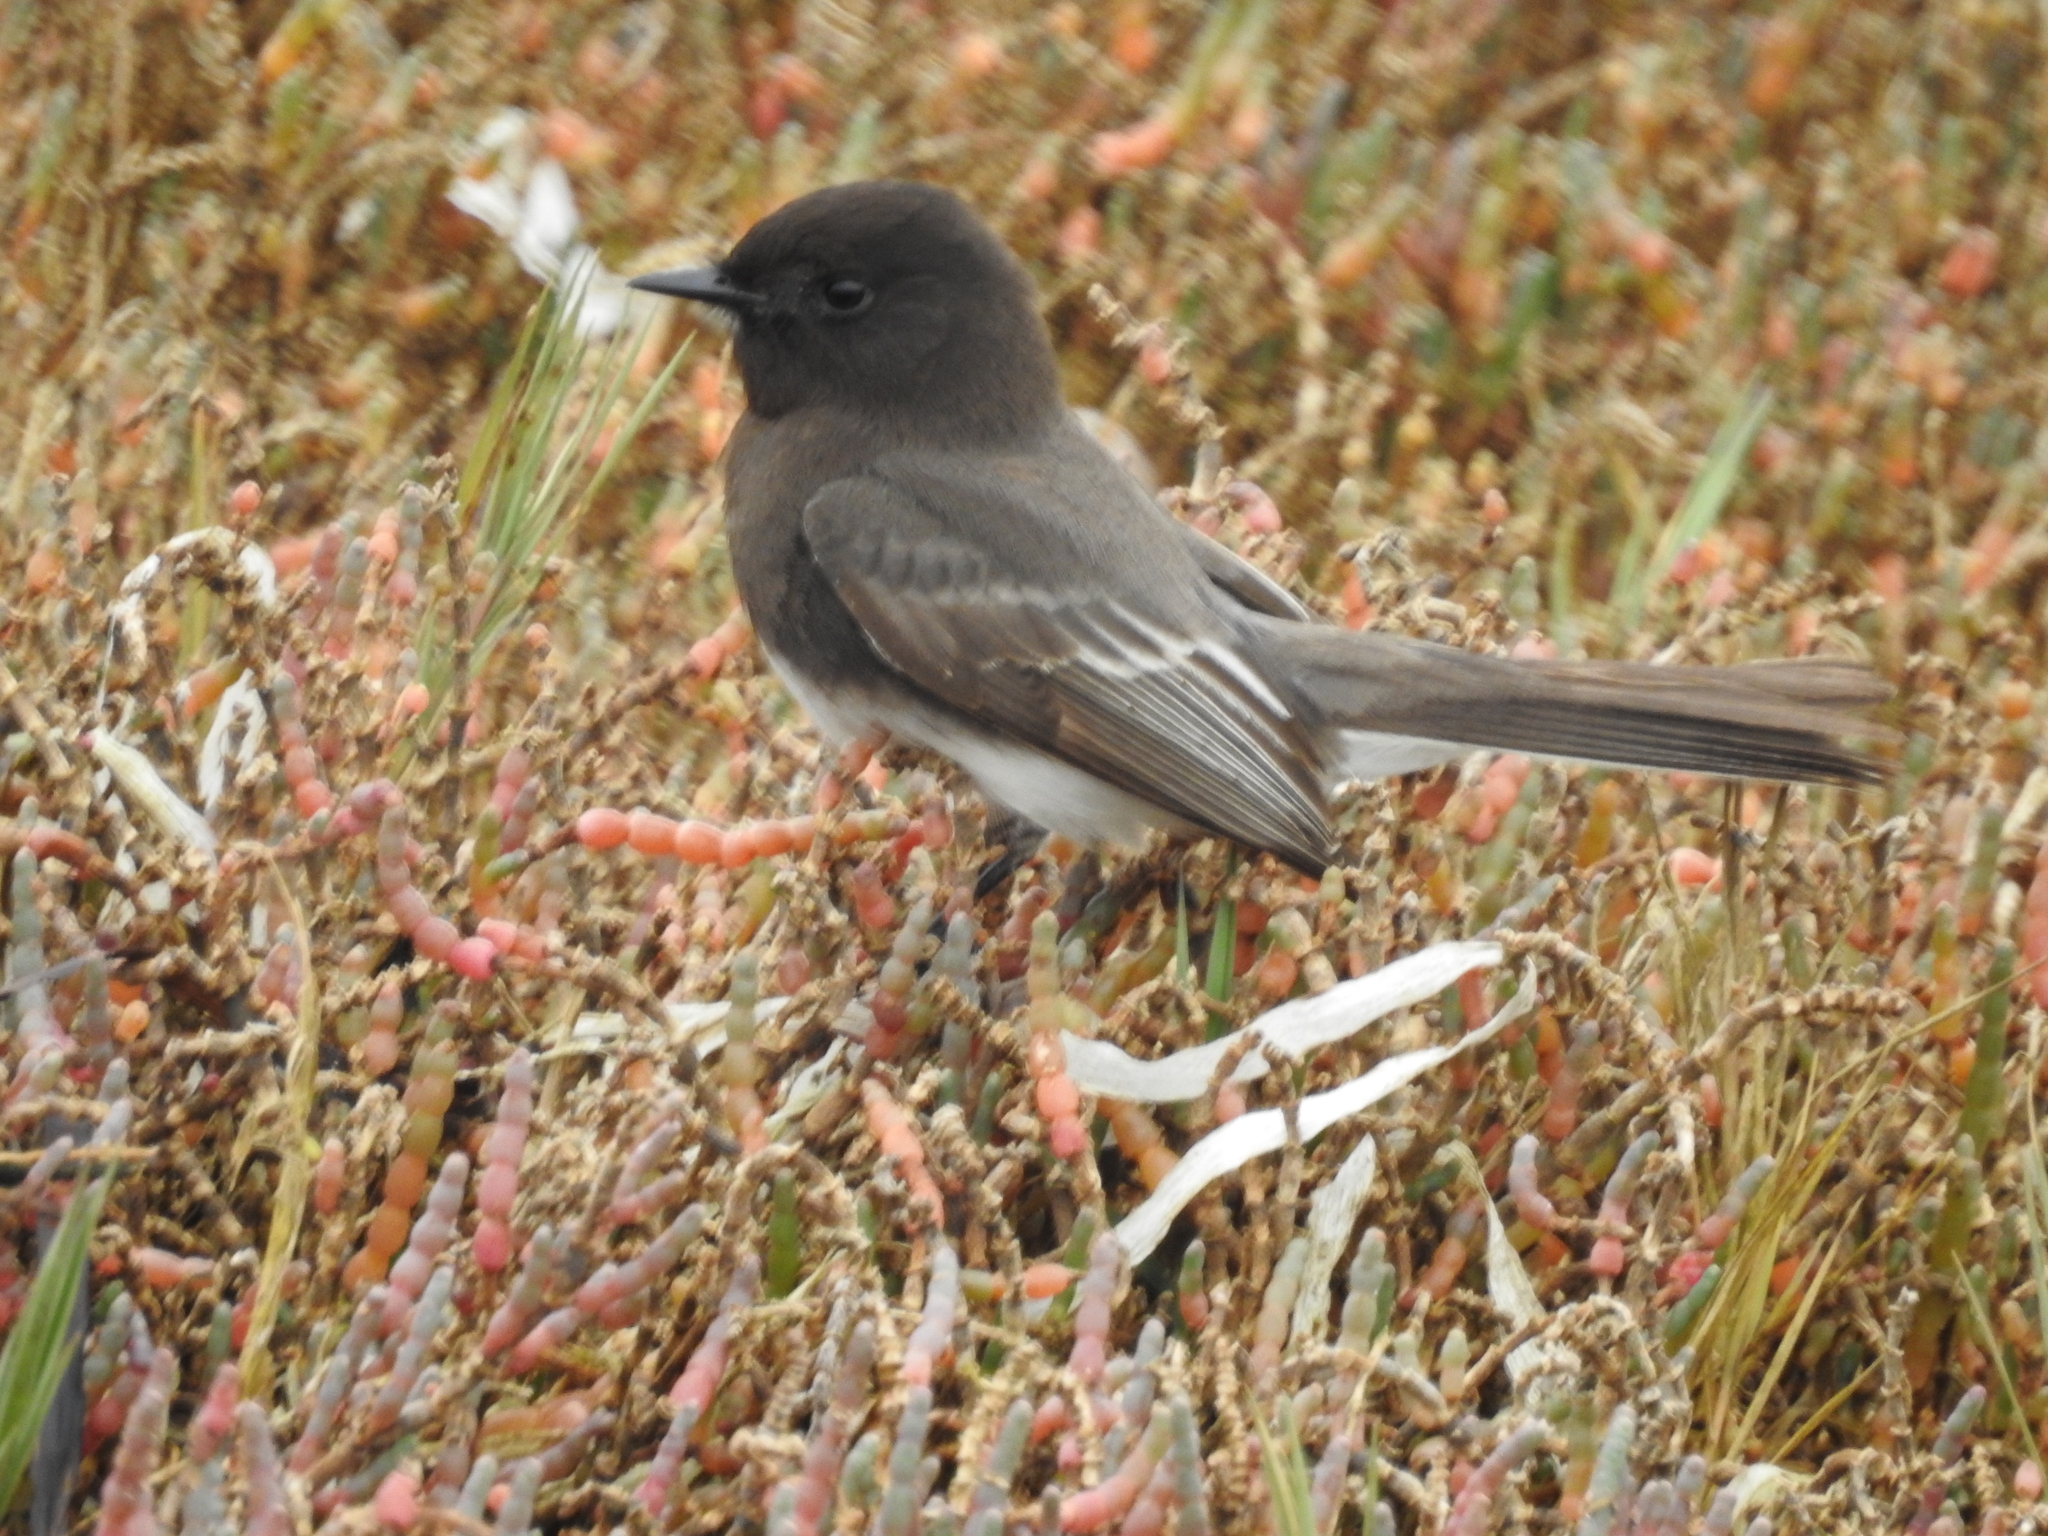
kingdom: Animalia
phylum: Chordata
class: Aves
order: Passeriformes
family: Tyrannidae
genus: Sayornis
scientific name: Sayornis nigricans
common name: Black phoebe
